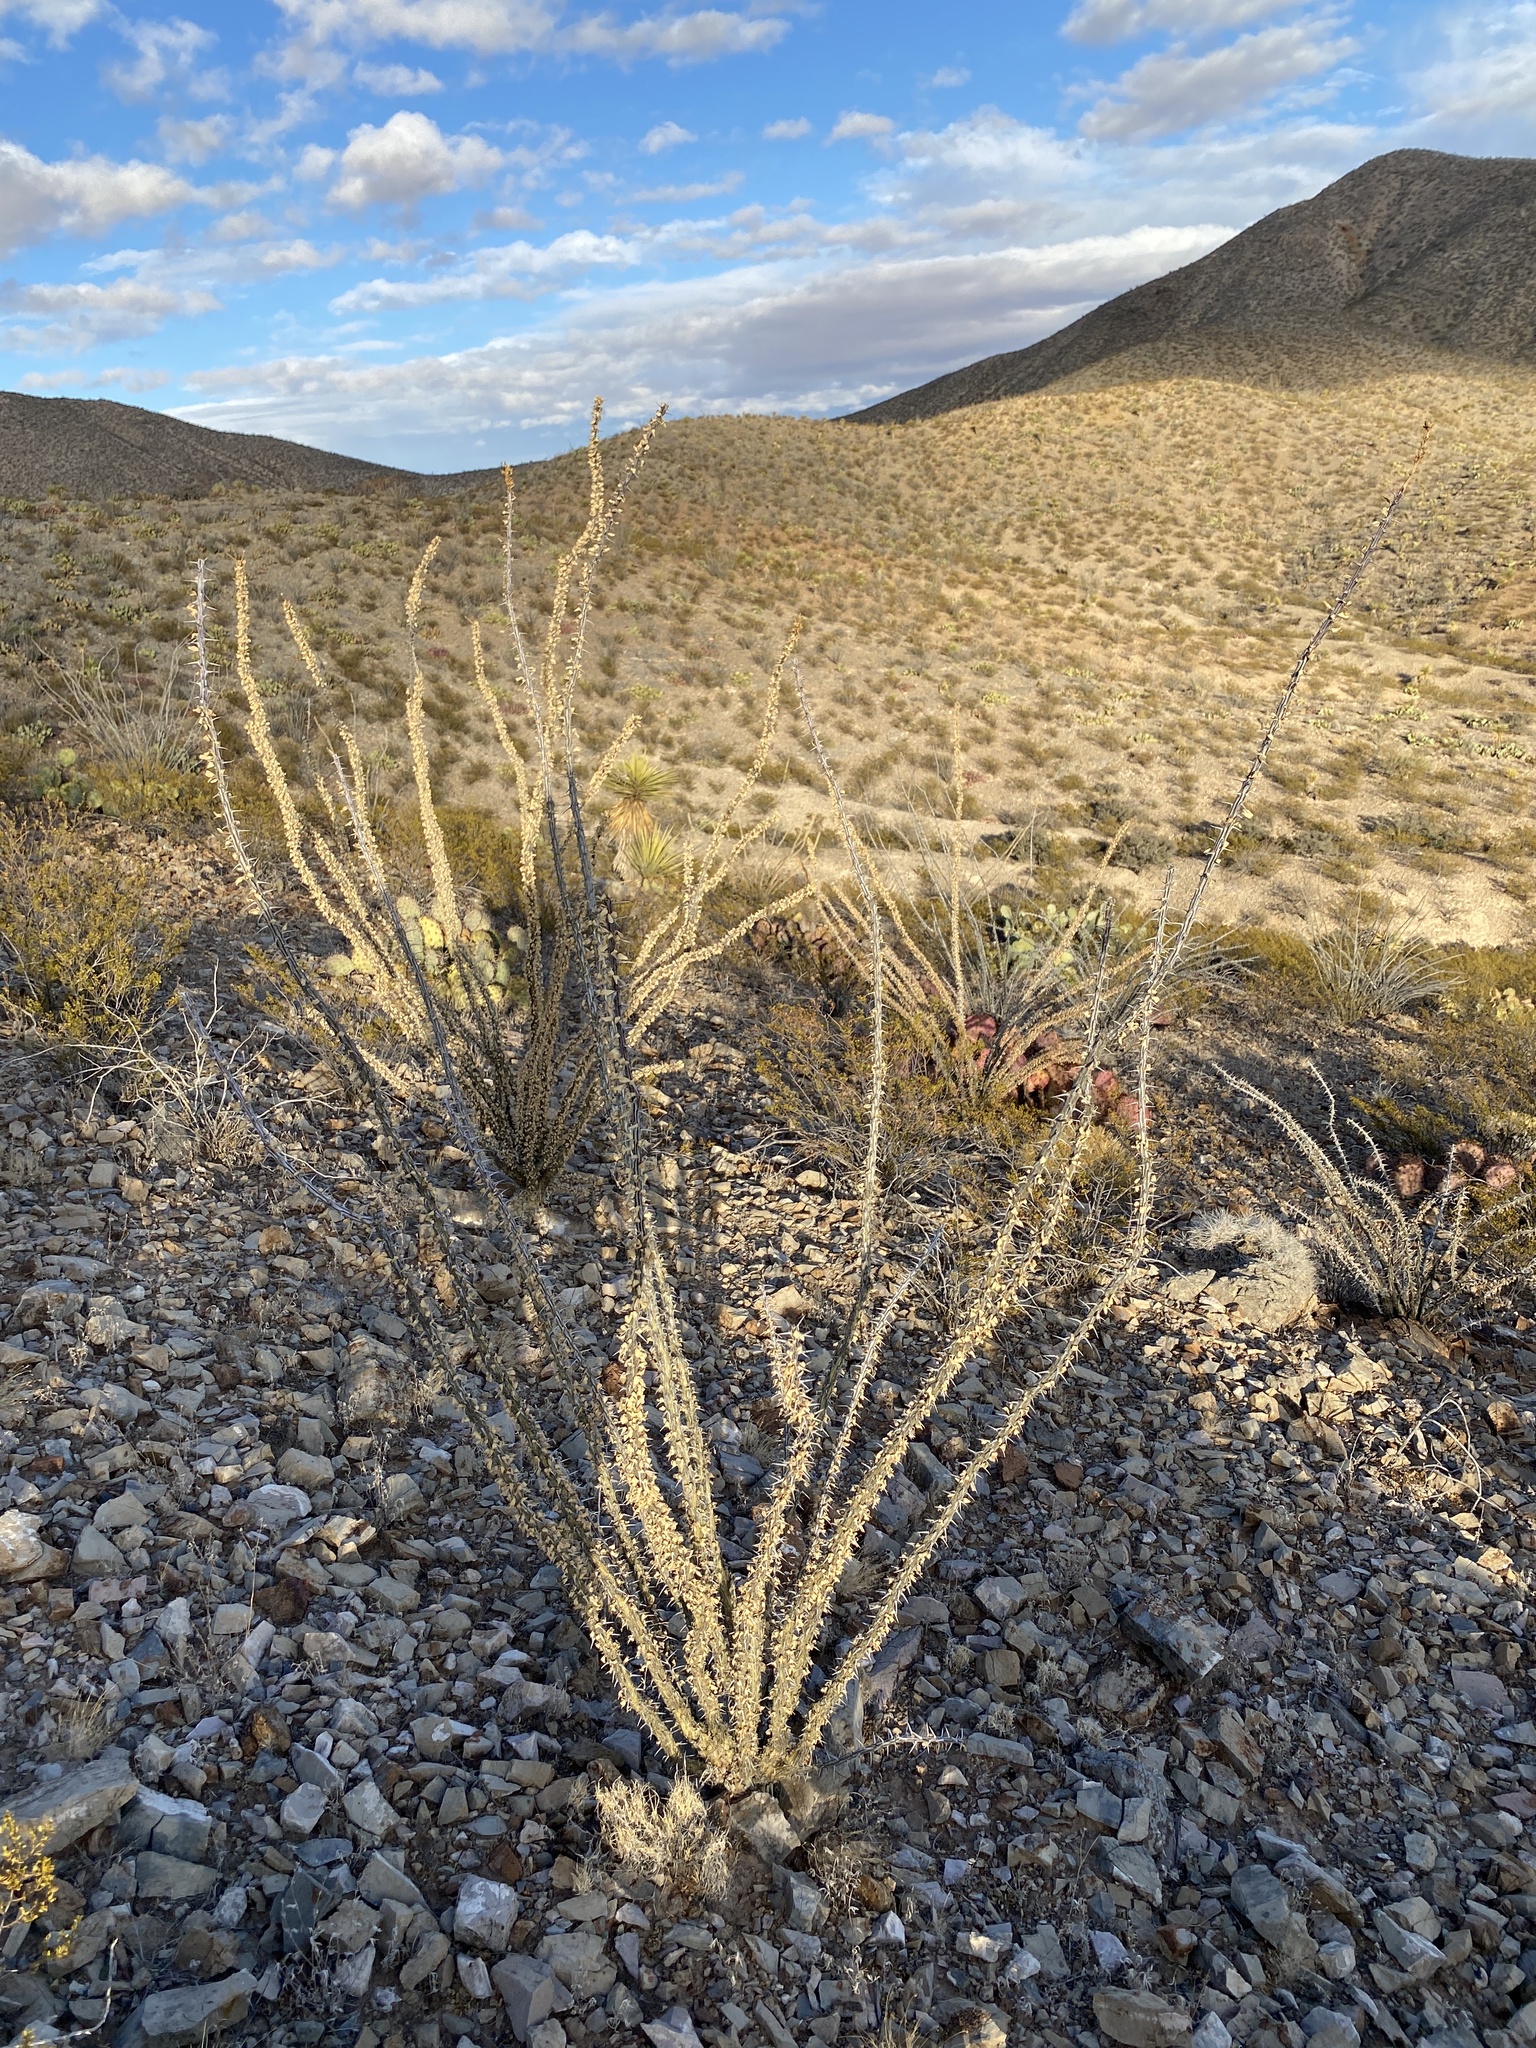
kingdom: Plantae
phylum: Tracheophyta
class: Magnoliopsida
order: Ericales
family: Fouquieriaceae
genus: Fouquieria
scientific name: Fouquieria splendens
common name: Vine-cactus
